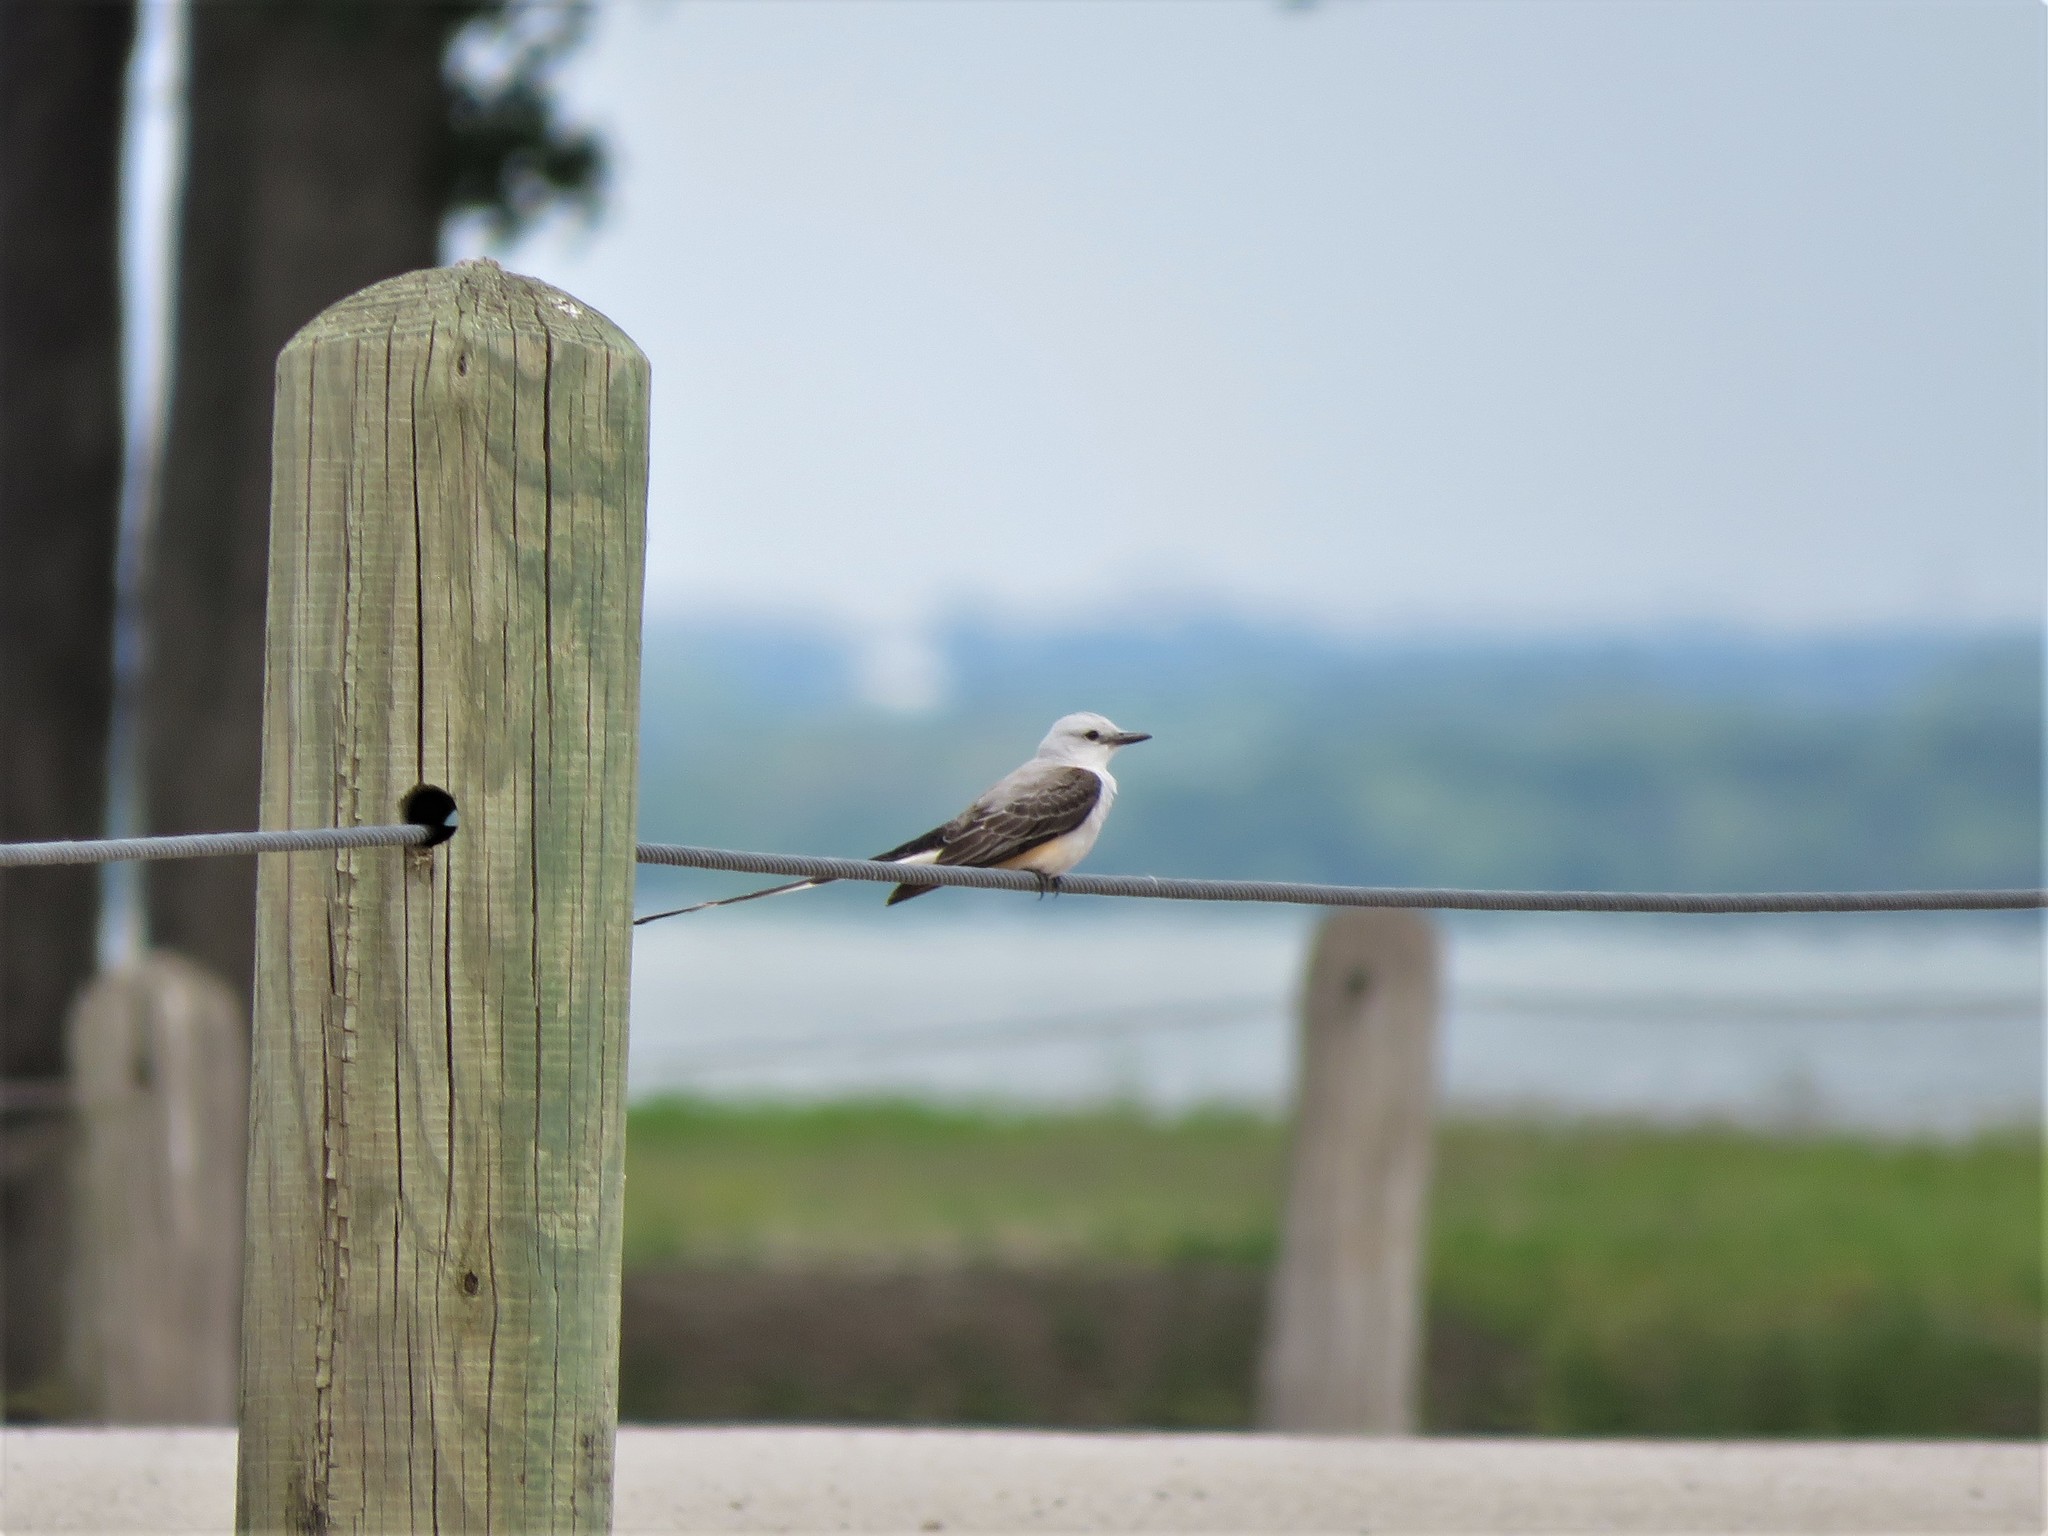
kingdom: Animalia
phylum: Chordata
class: Aves
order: Passeriformes
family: Tyrannidae
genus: Tyrannus
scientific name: Tyrannus forficatus
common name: Scissor-tailed flycatcher
